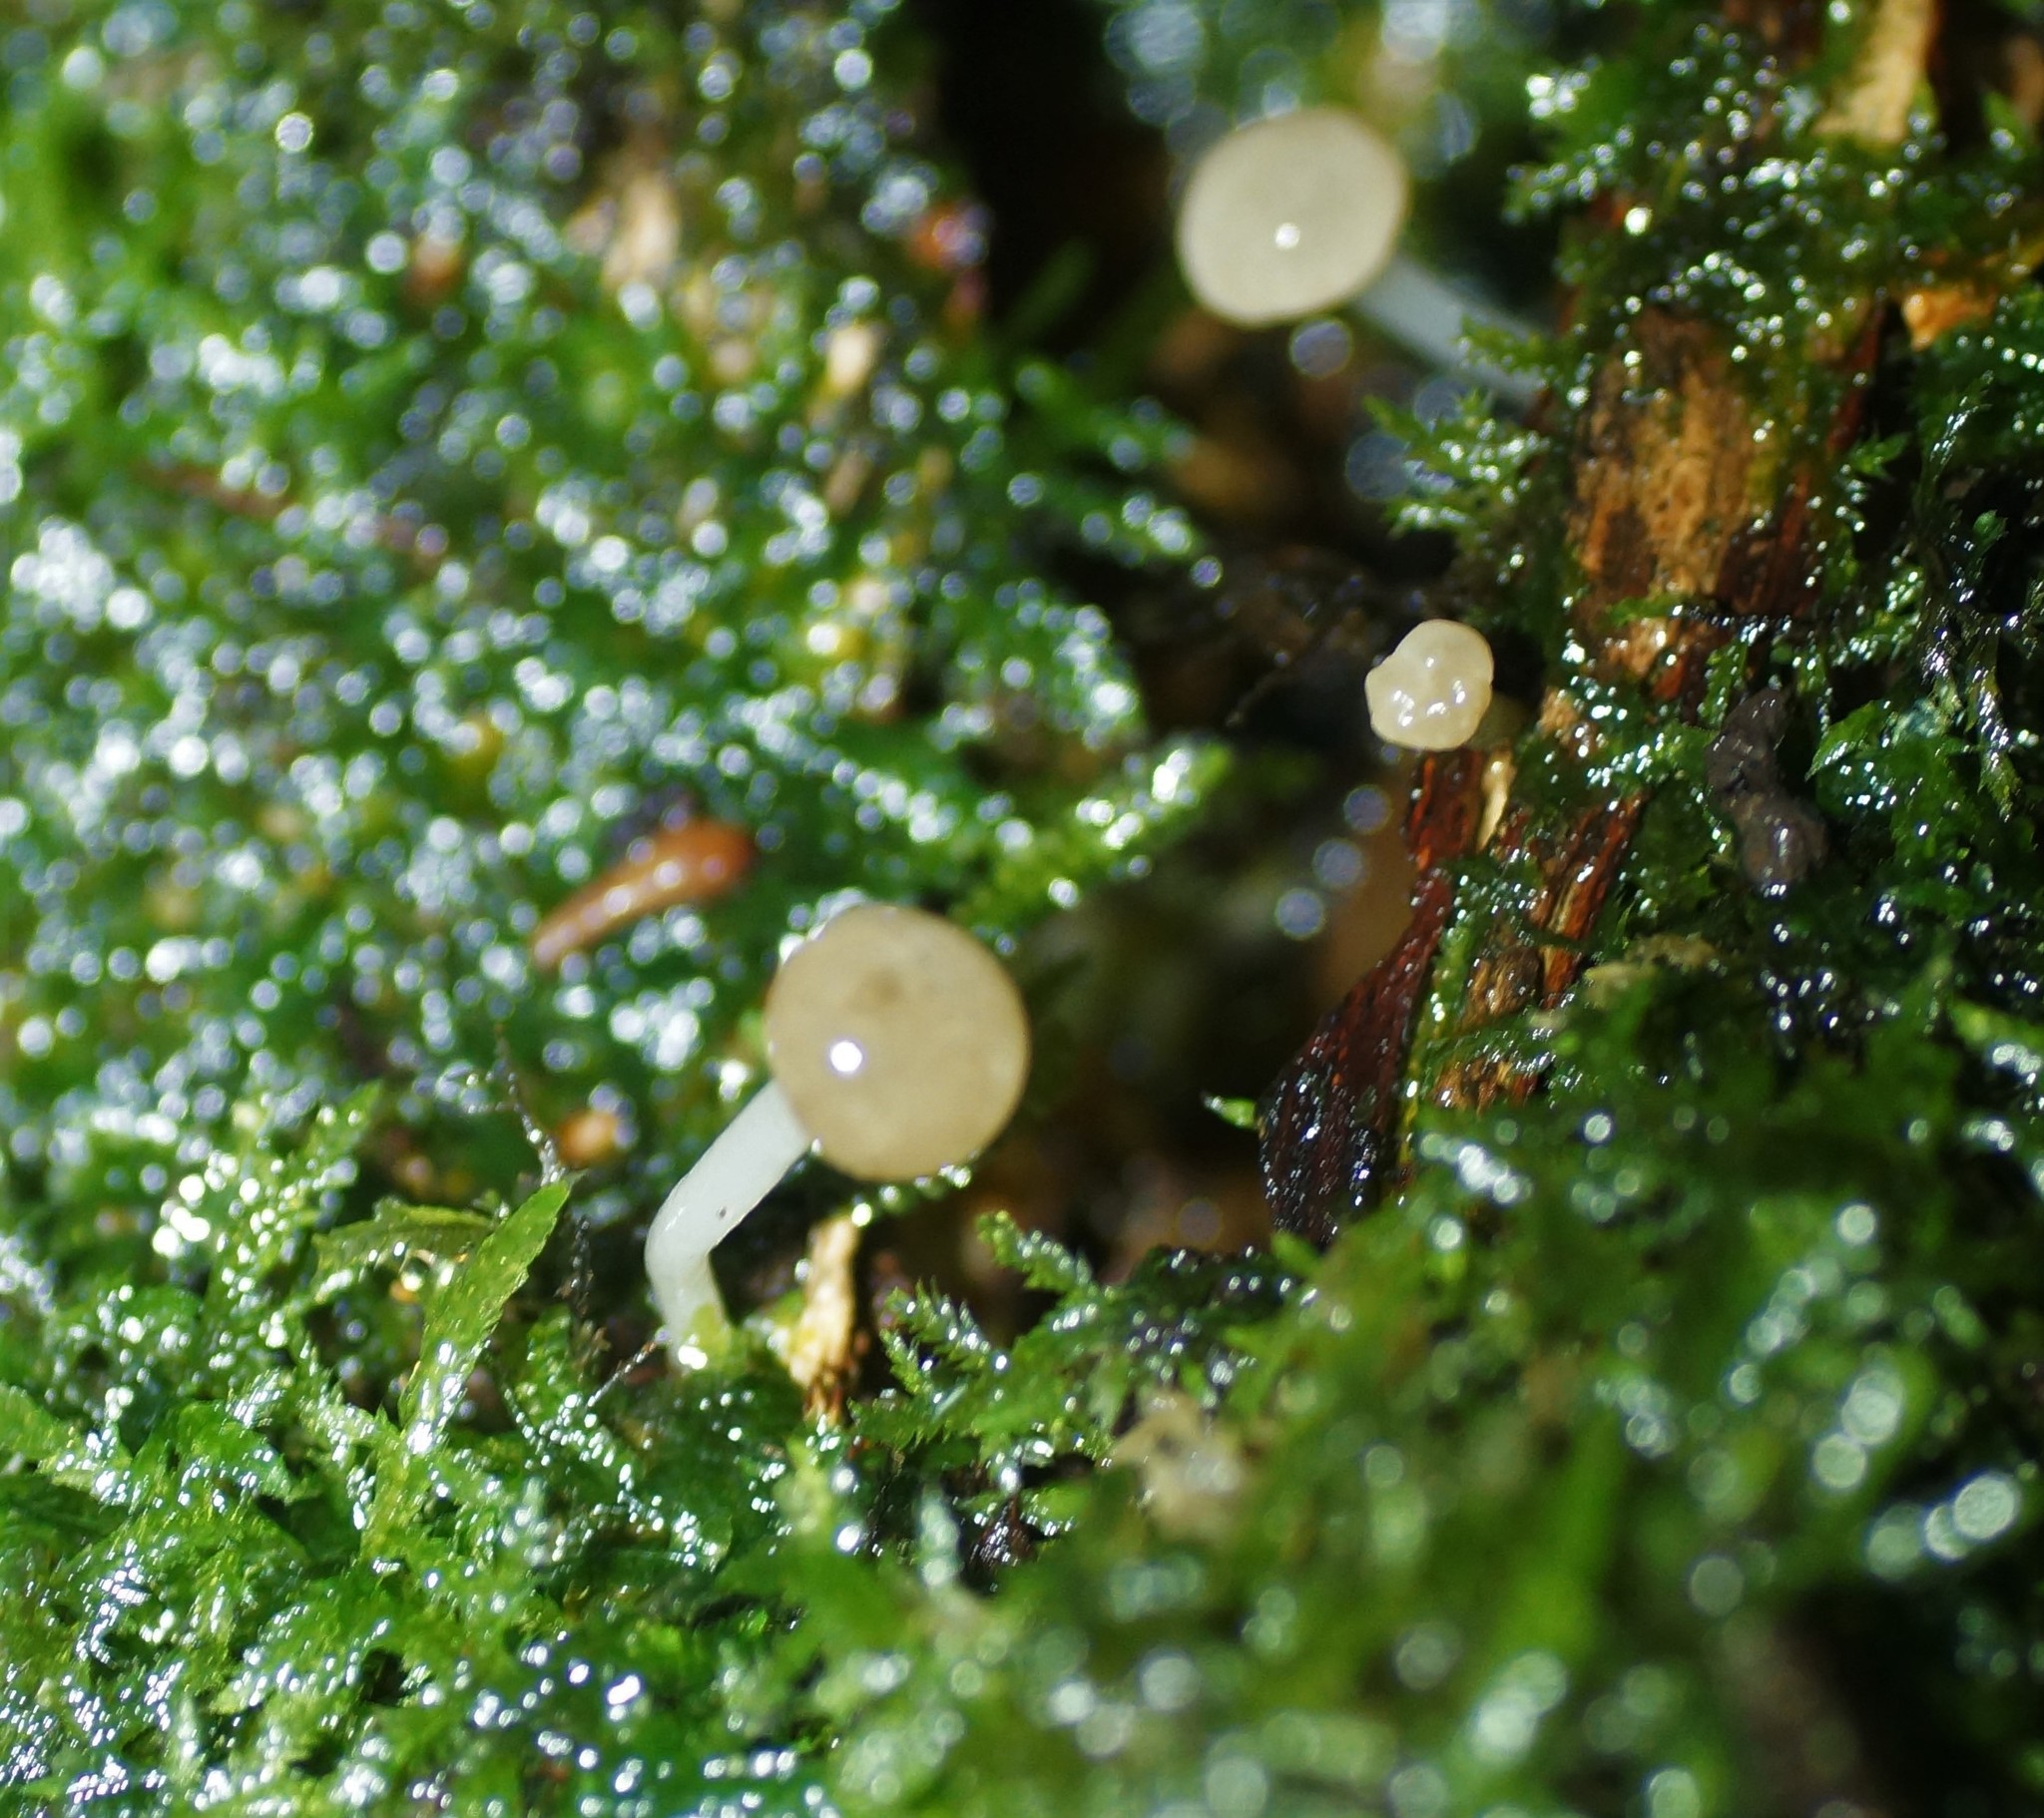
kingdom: Fungi
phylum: Ascomycota
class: Leotiomycetes
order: Helotiales
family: Vibrisseaceae
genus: Vibrissea
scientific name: Vibrissea dura
